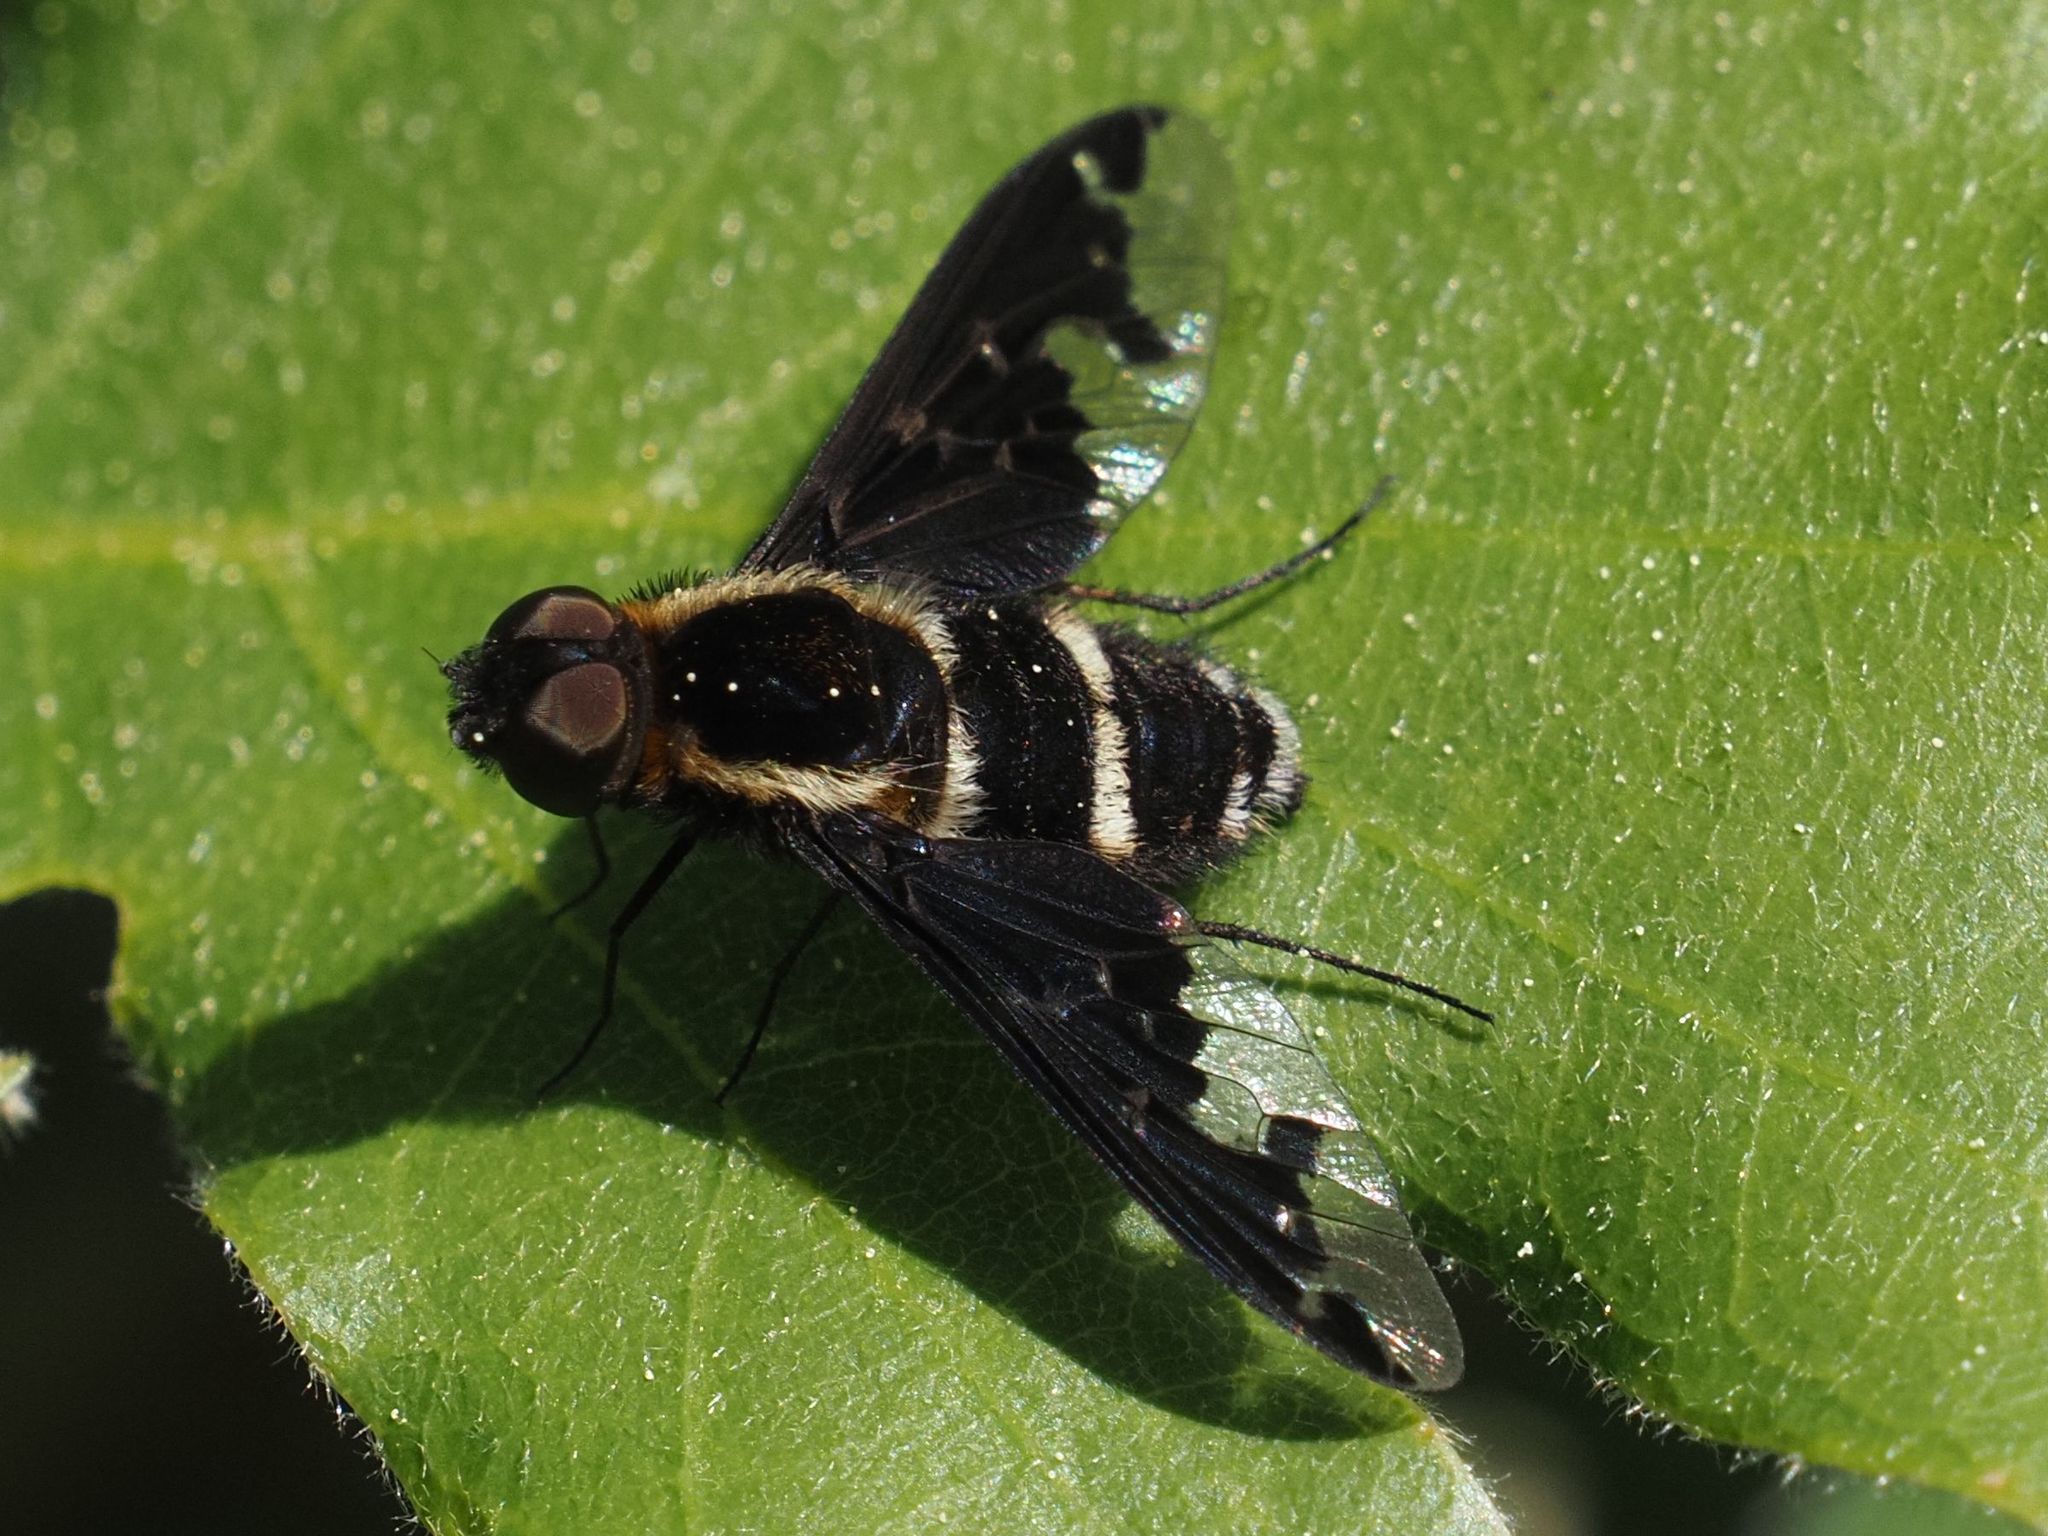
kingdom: Animalia
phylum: Arthropoda
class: Insecta
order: Diptera
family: Bombyliidae
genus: Hemipenthes
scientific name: Hemipenthes maura
